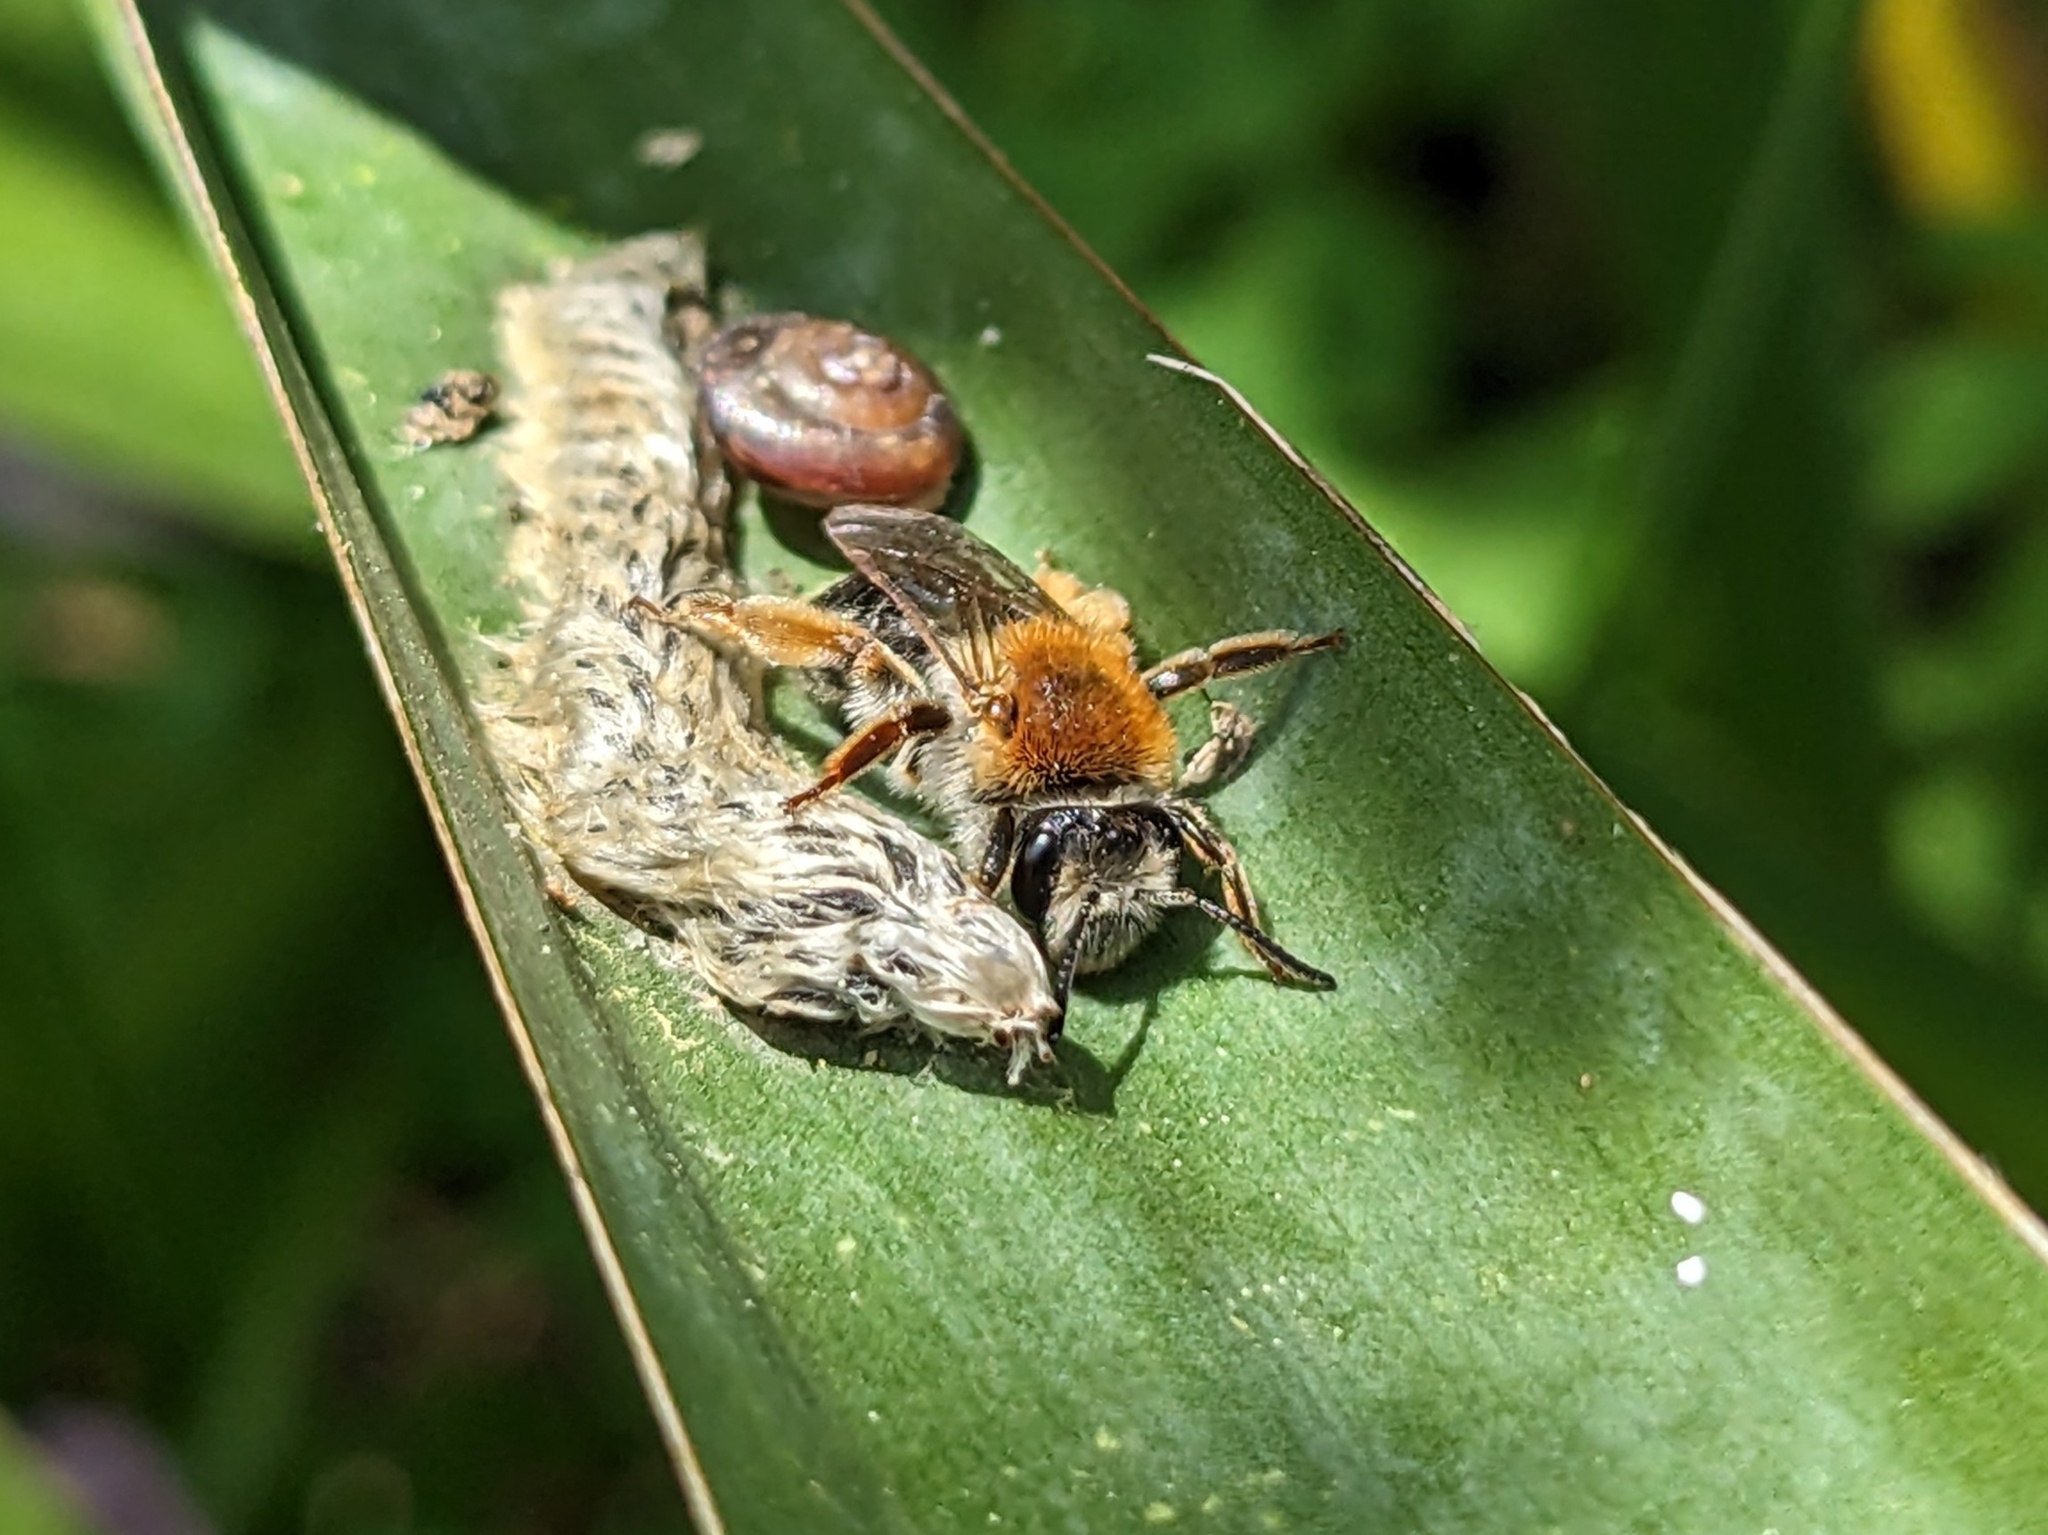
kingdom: Animalia
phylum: Arthropoda
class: Insecta
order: Hymenoptera
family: Andrenidae
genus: Andrena
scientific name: Andrena haemorrhoa
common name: Early mining bee
